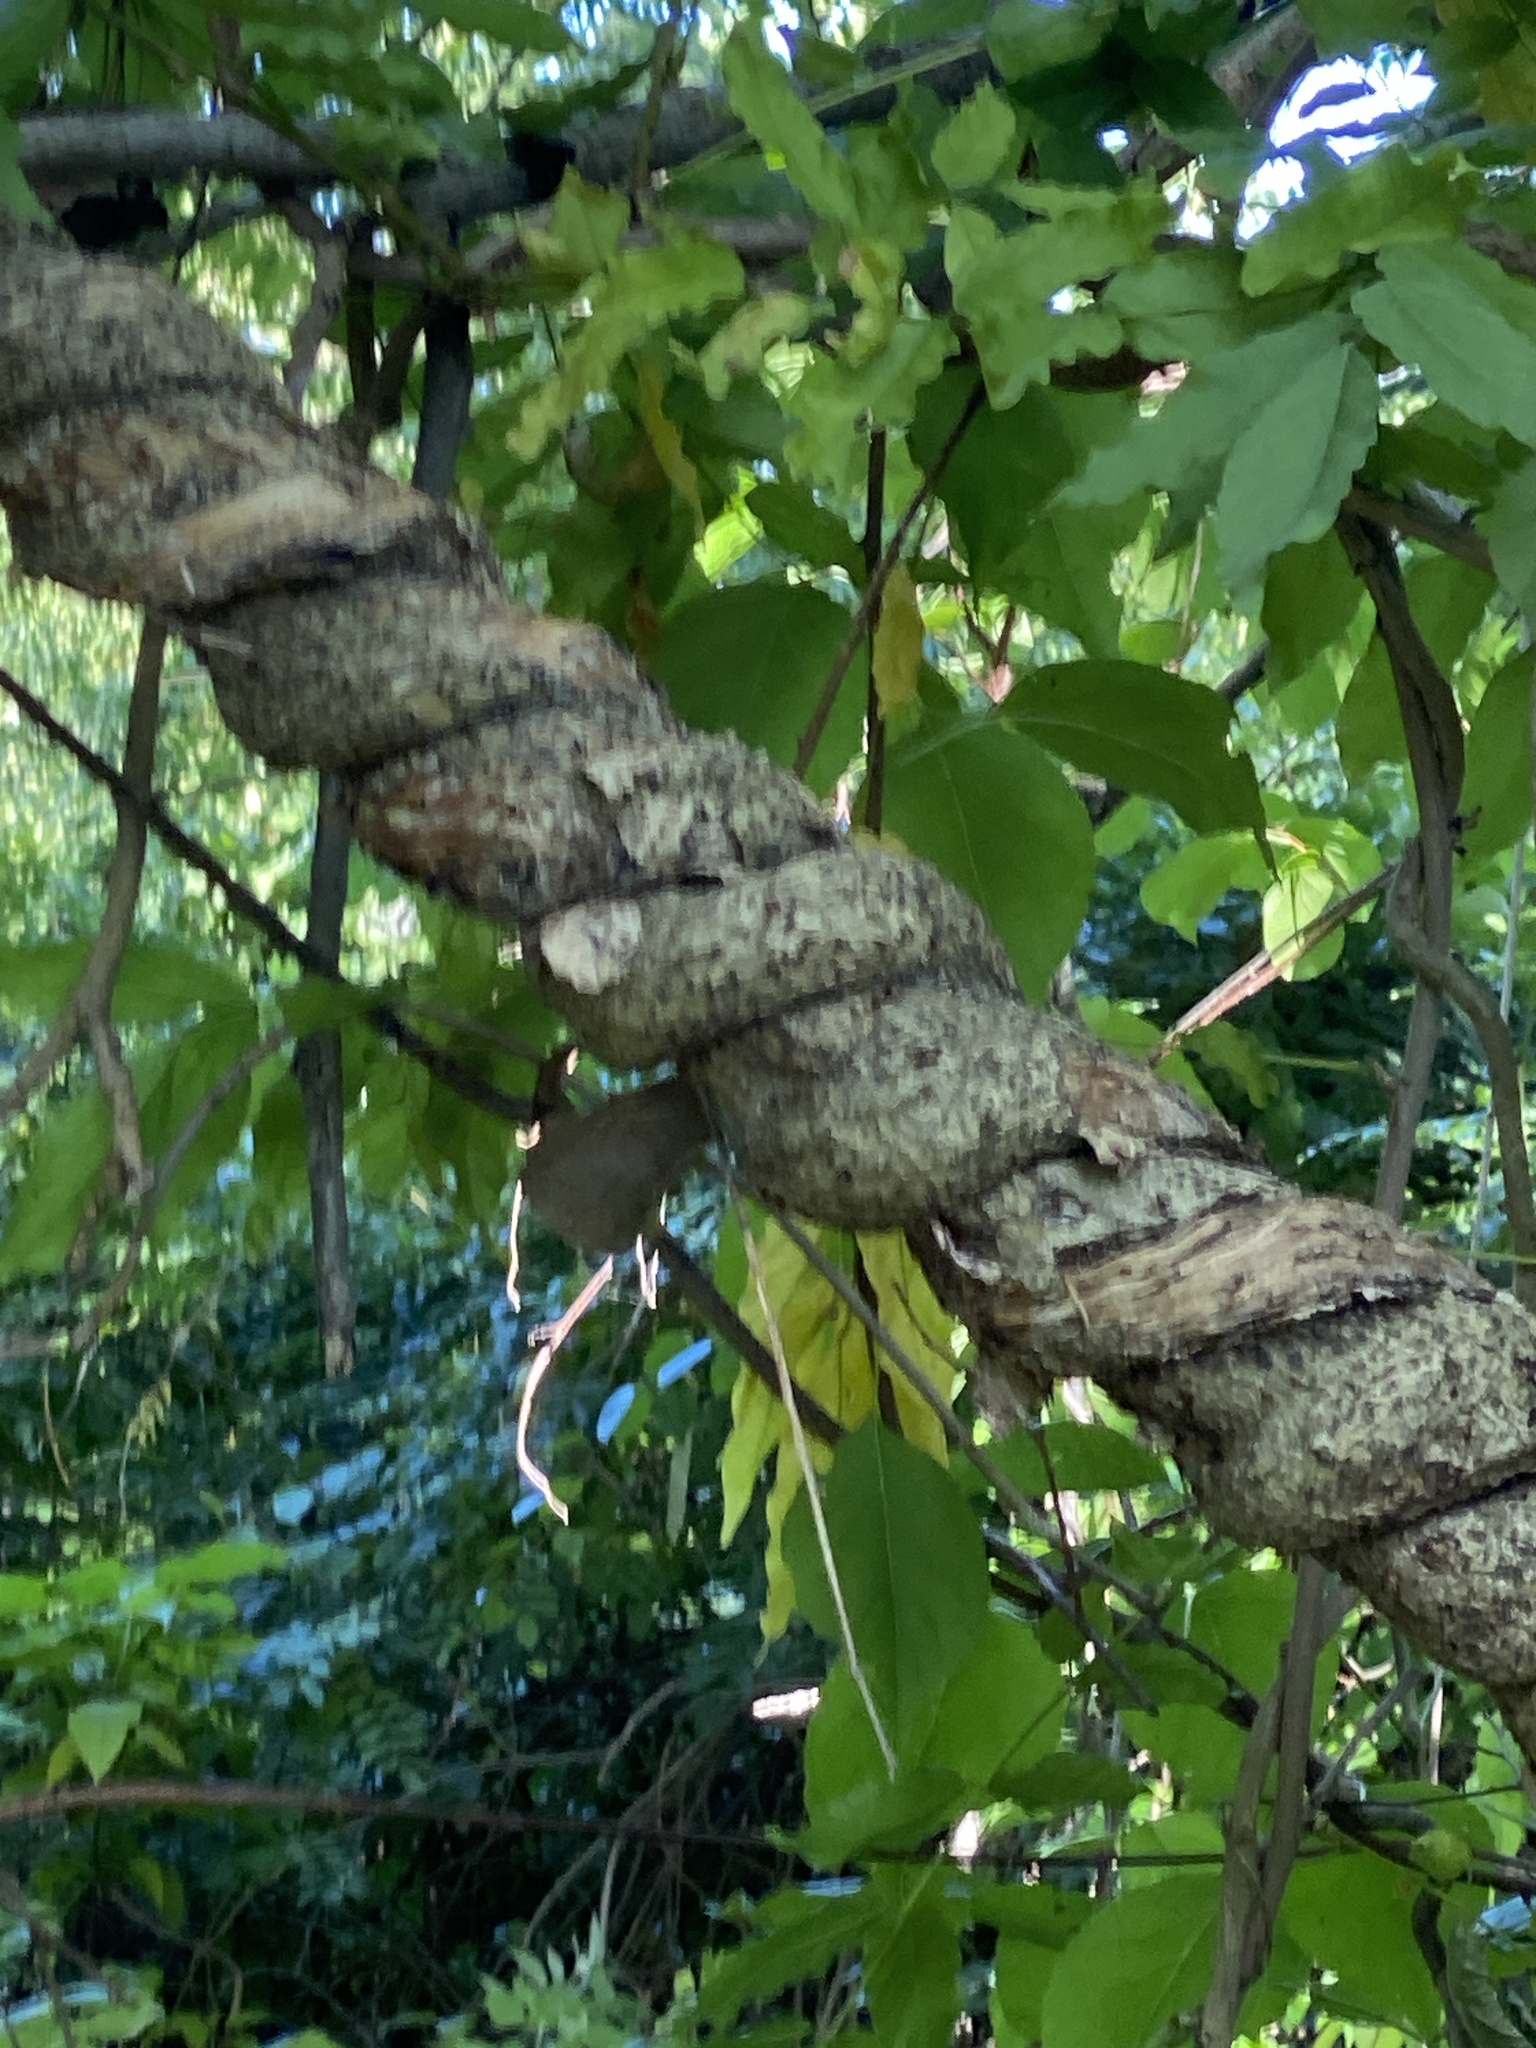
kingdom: Plantae
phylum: Tracheophyta
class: Magnoliopsida
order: Celastrales
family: Celastraceae
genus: Celastrus
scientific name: Celastrus orbiculatus
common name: Oriental bittersweet
